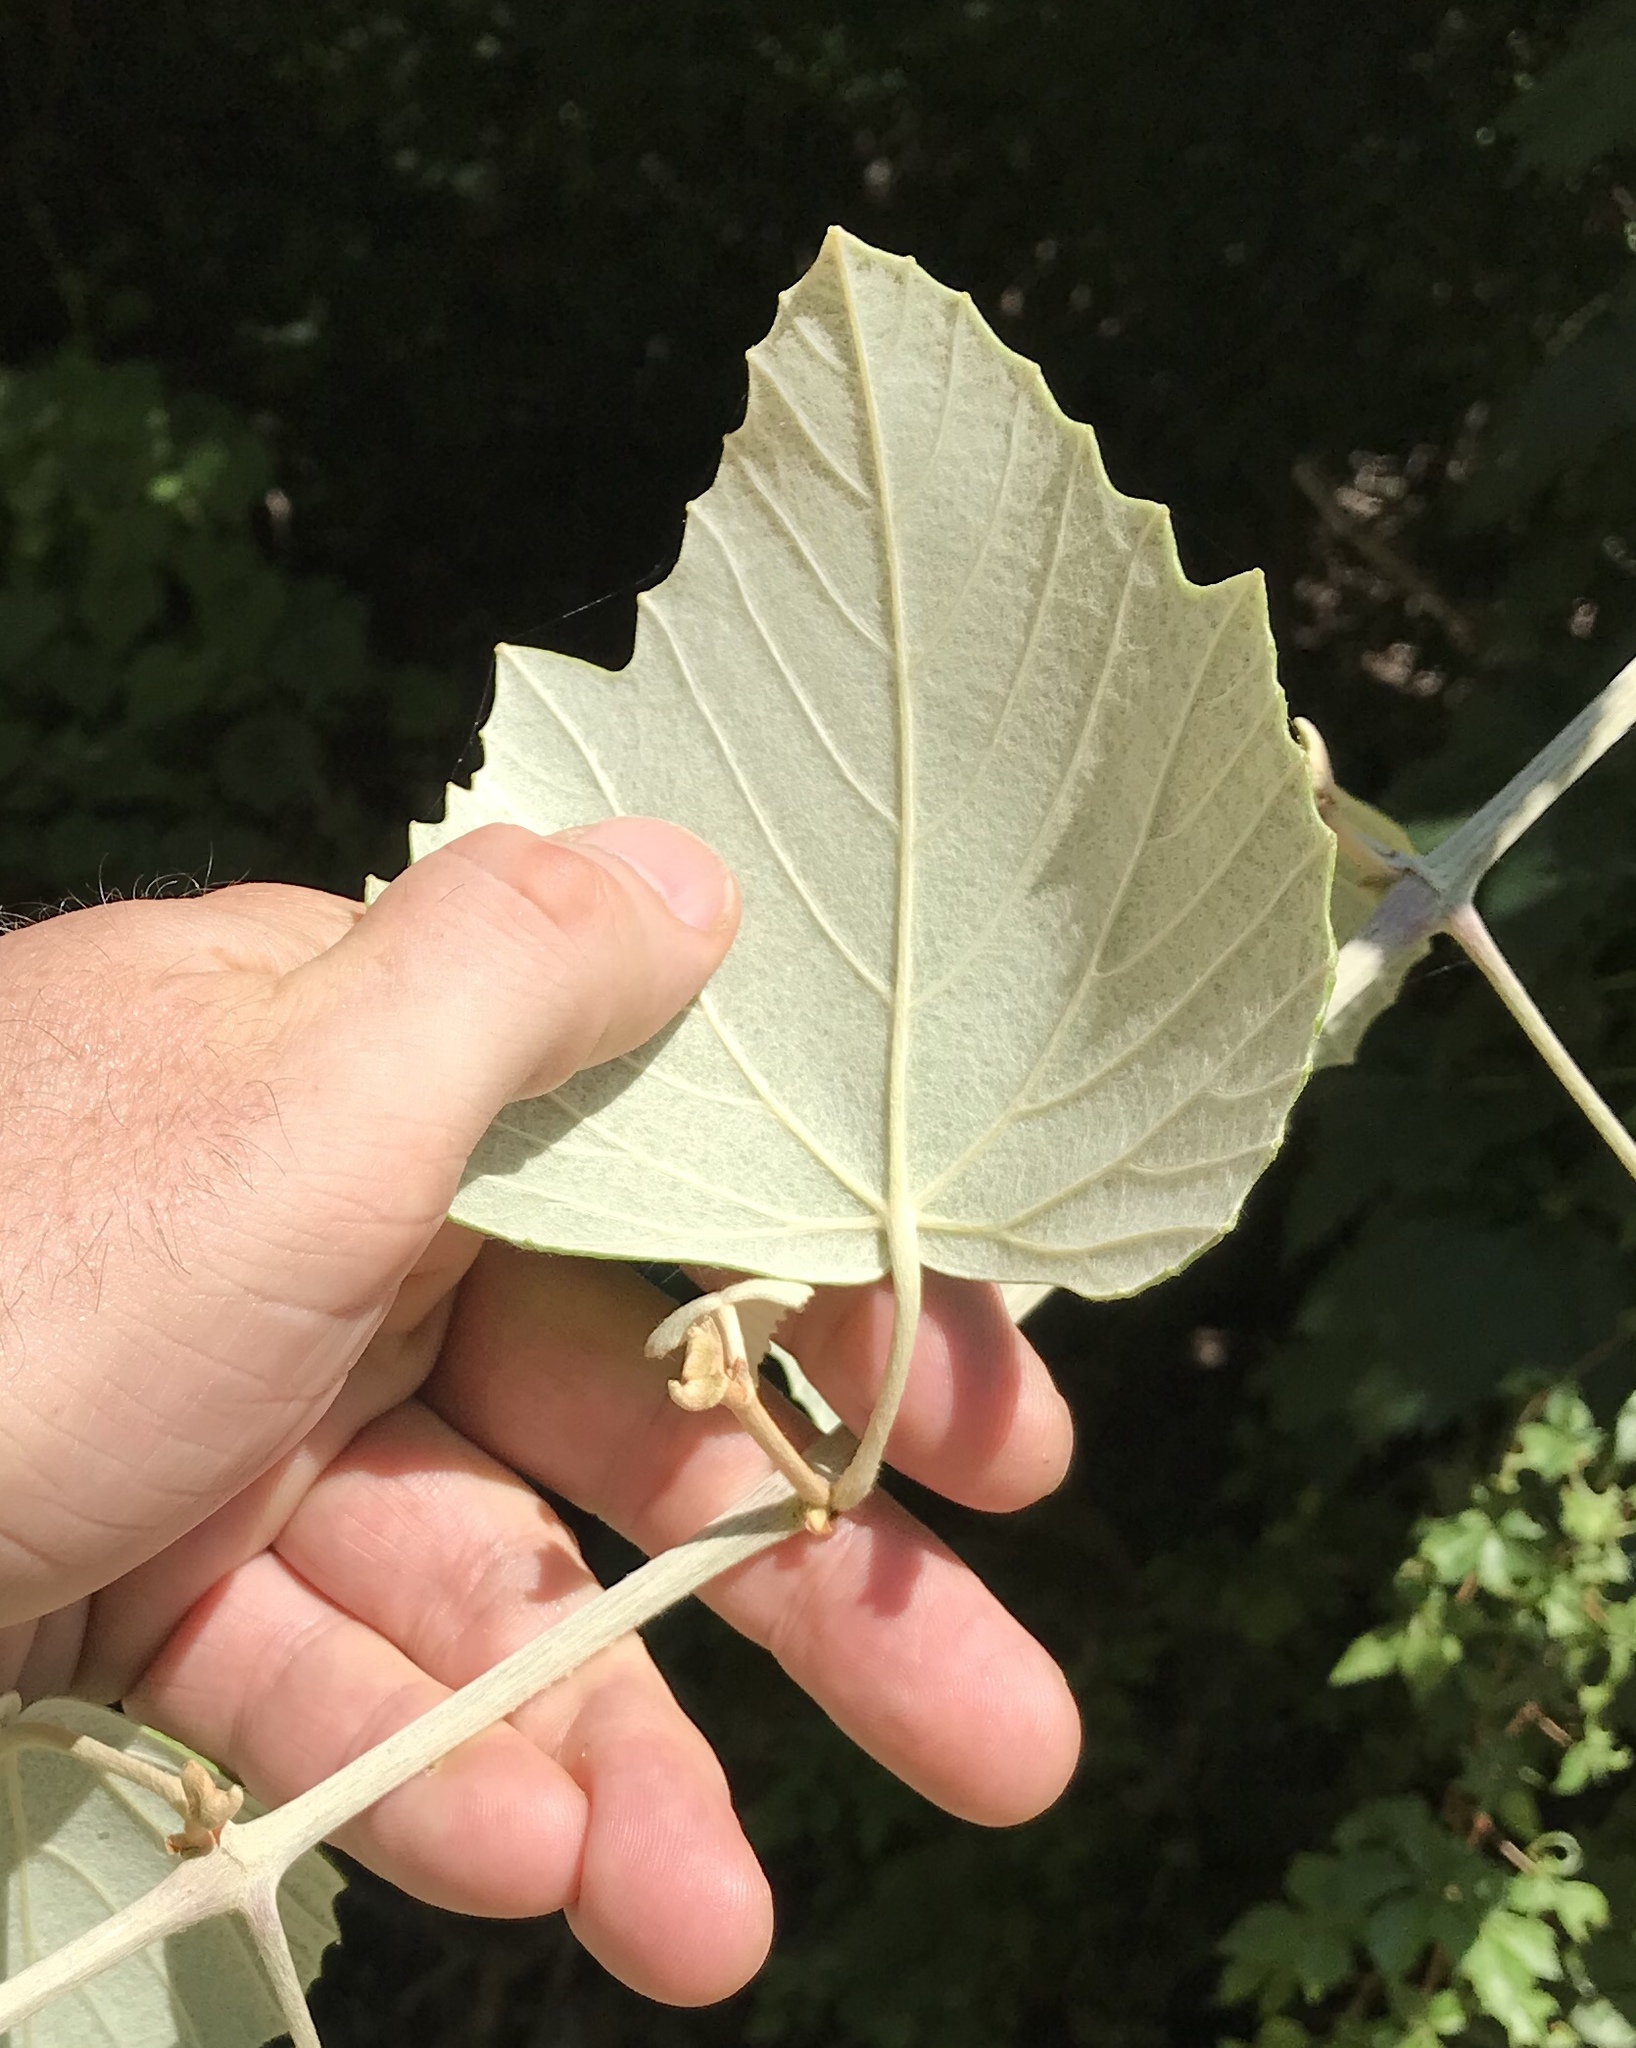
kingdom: Plantae
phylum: Tracheophyta
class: Magnoliopsida
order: Vitales
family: Vitaceae
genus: Vitis
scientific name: Vitis mustangensis
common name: Mustang grape
